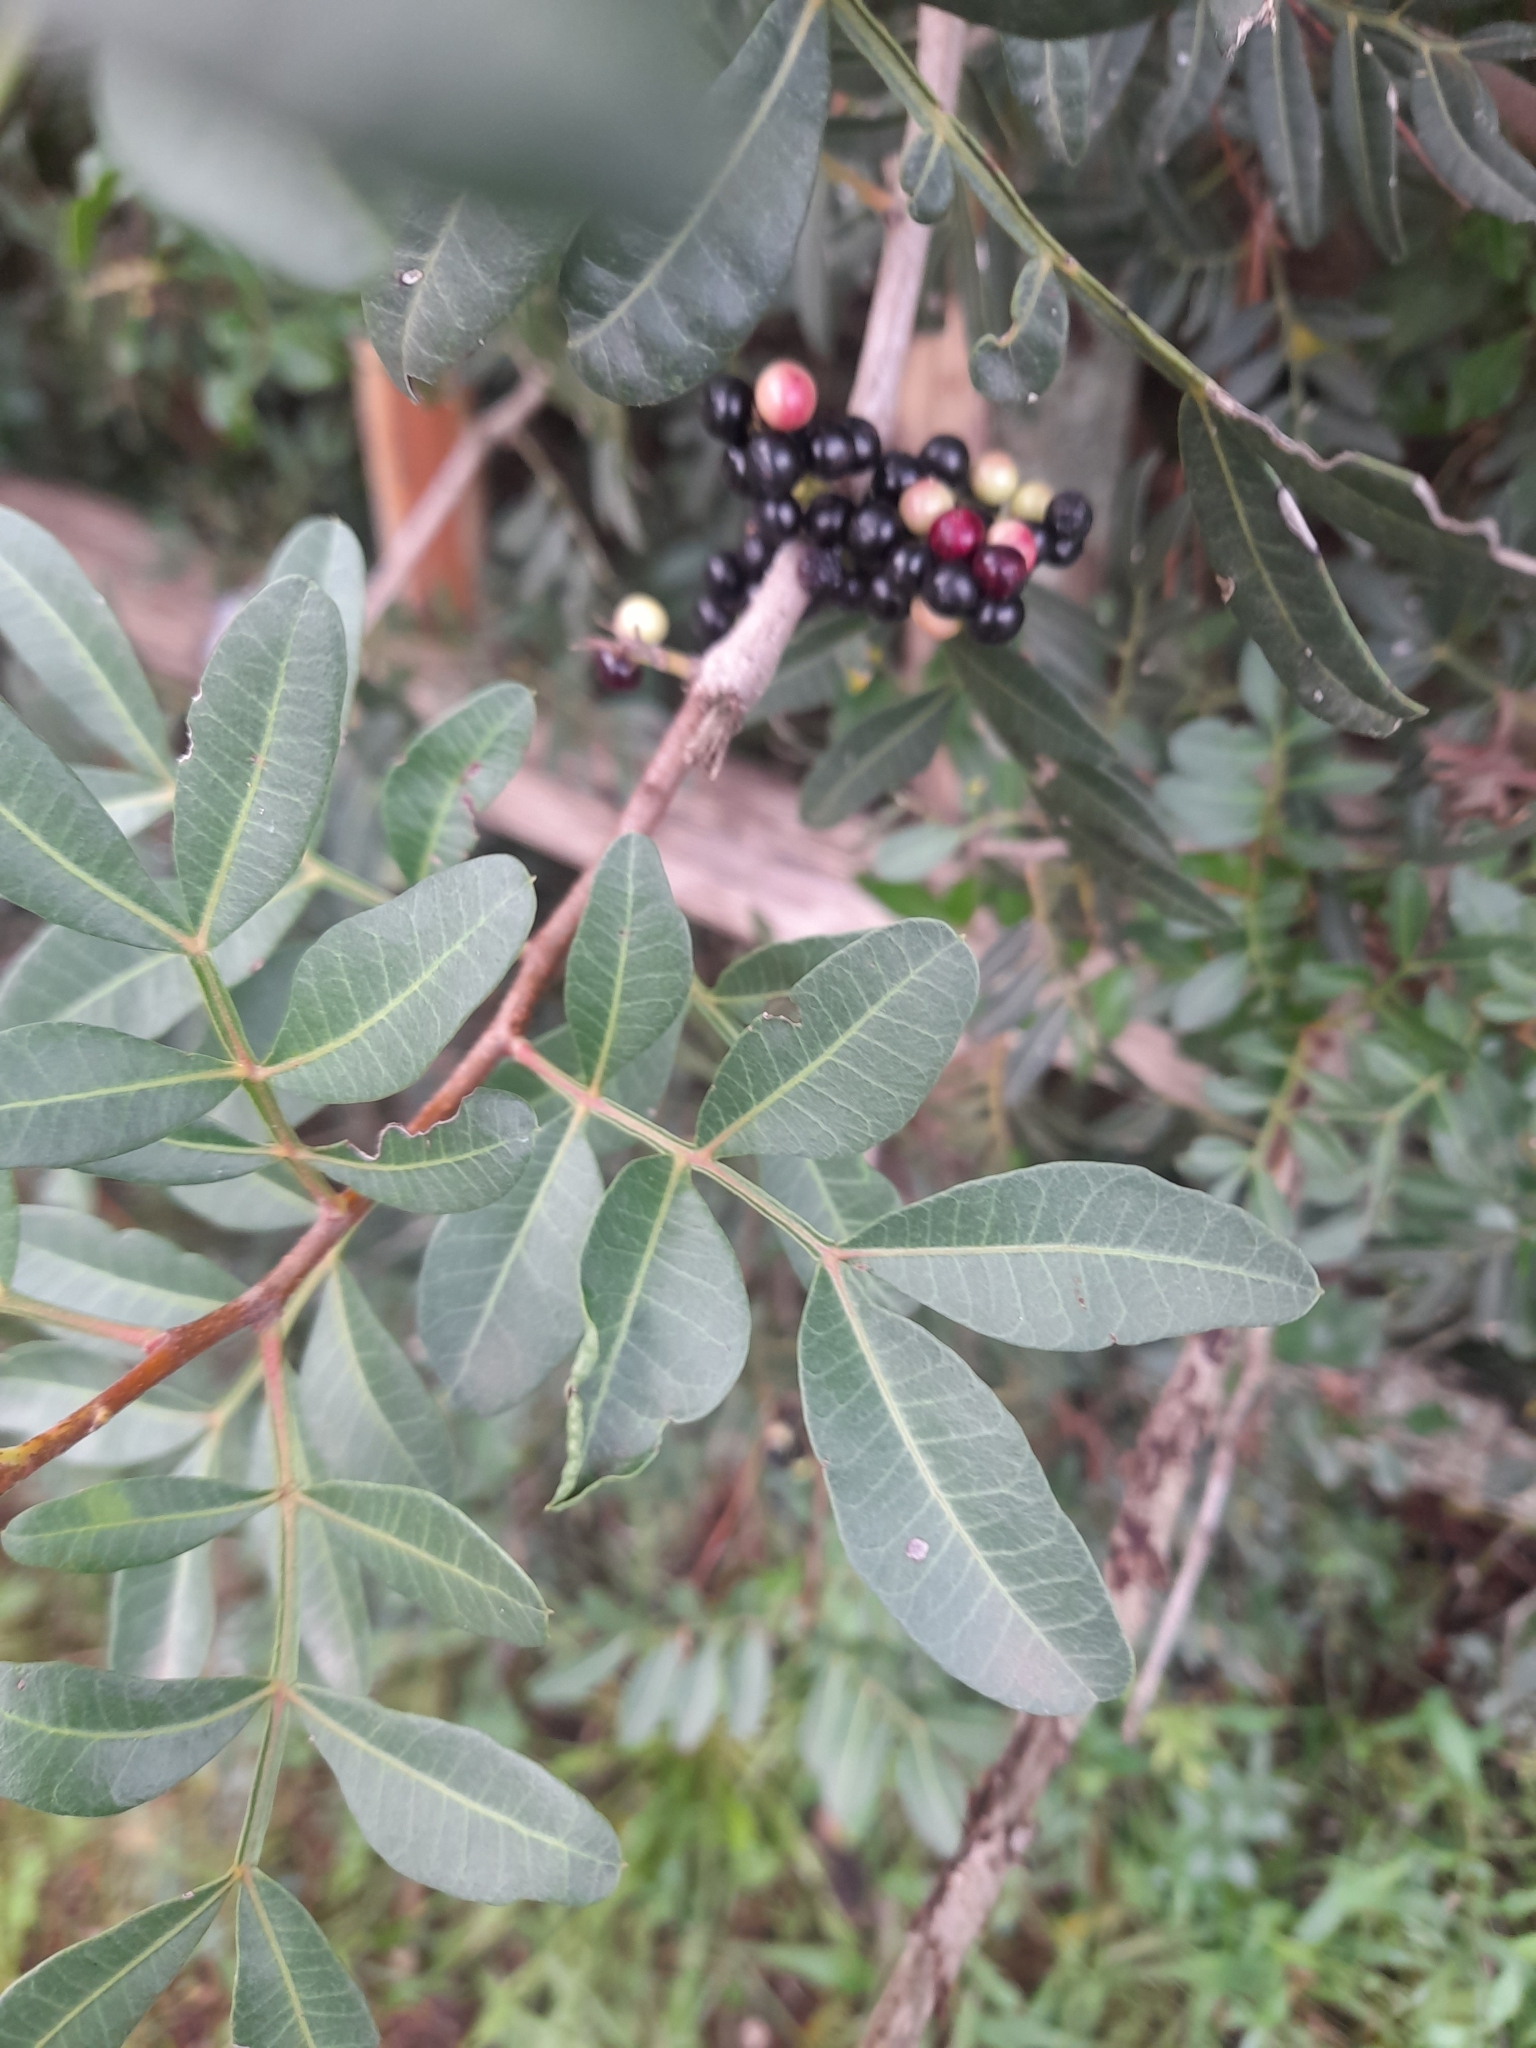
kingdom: Plantae
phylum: Tracheophyta
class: Magnoliopsida
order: Sapindales
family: Anacardiaceae
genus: Pistacia
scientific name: Pistacia lentiscus
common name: Lentisk
